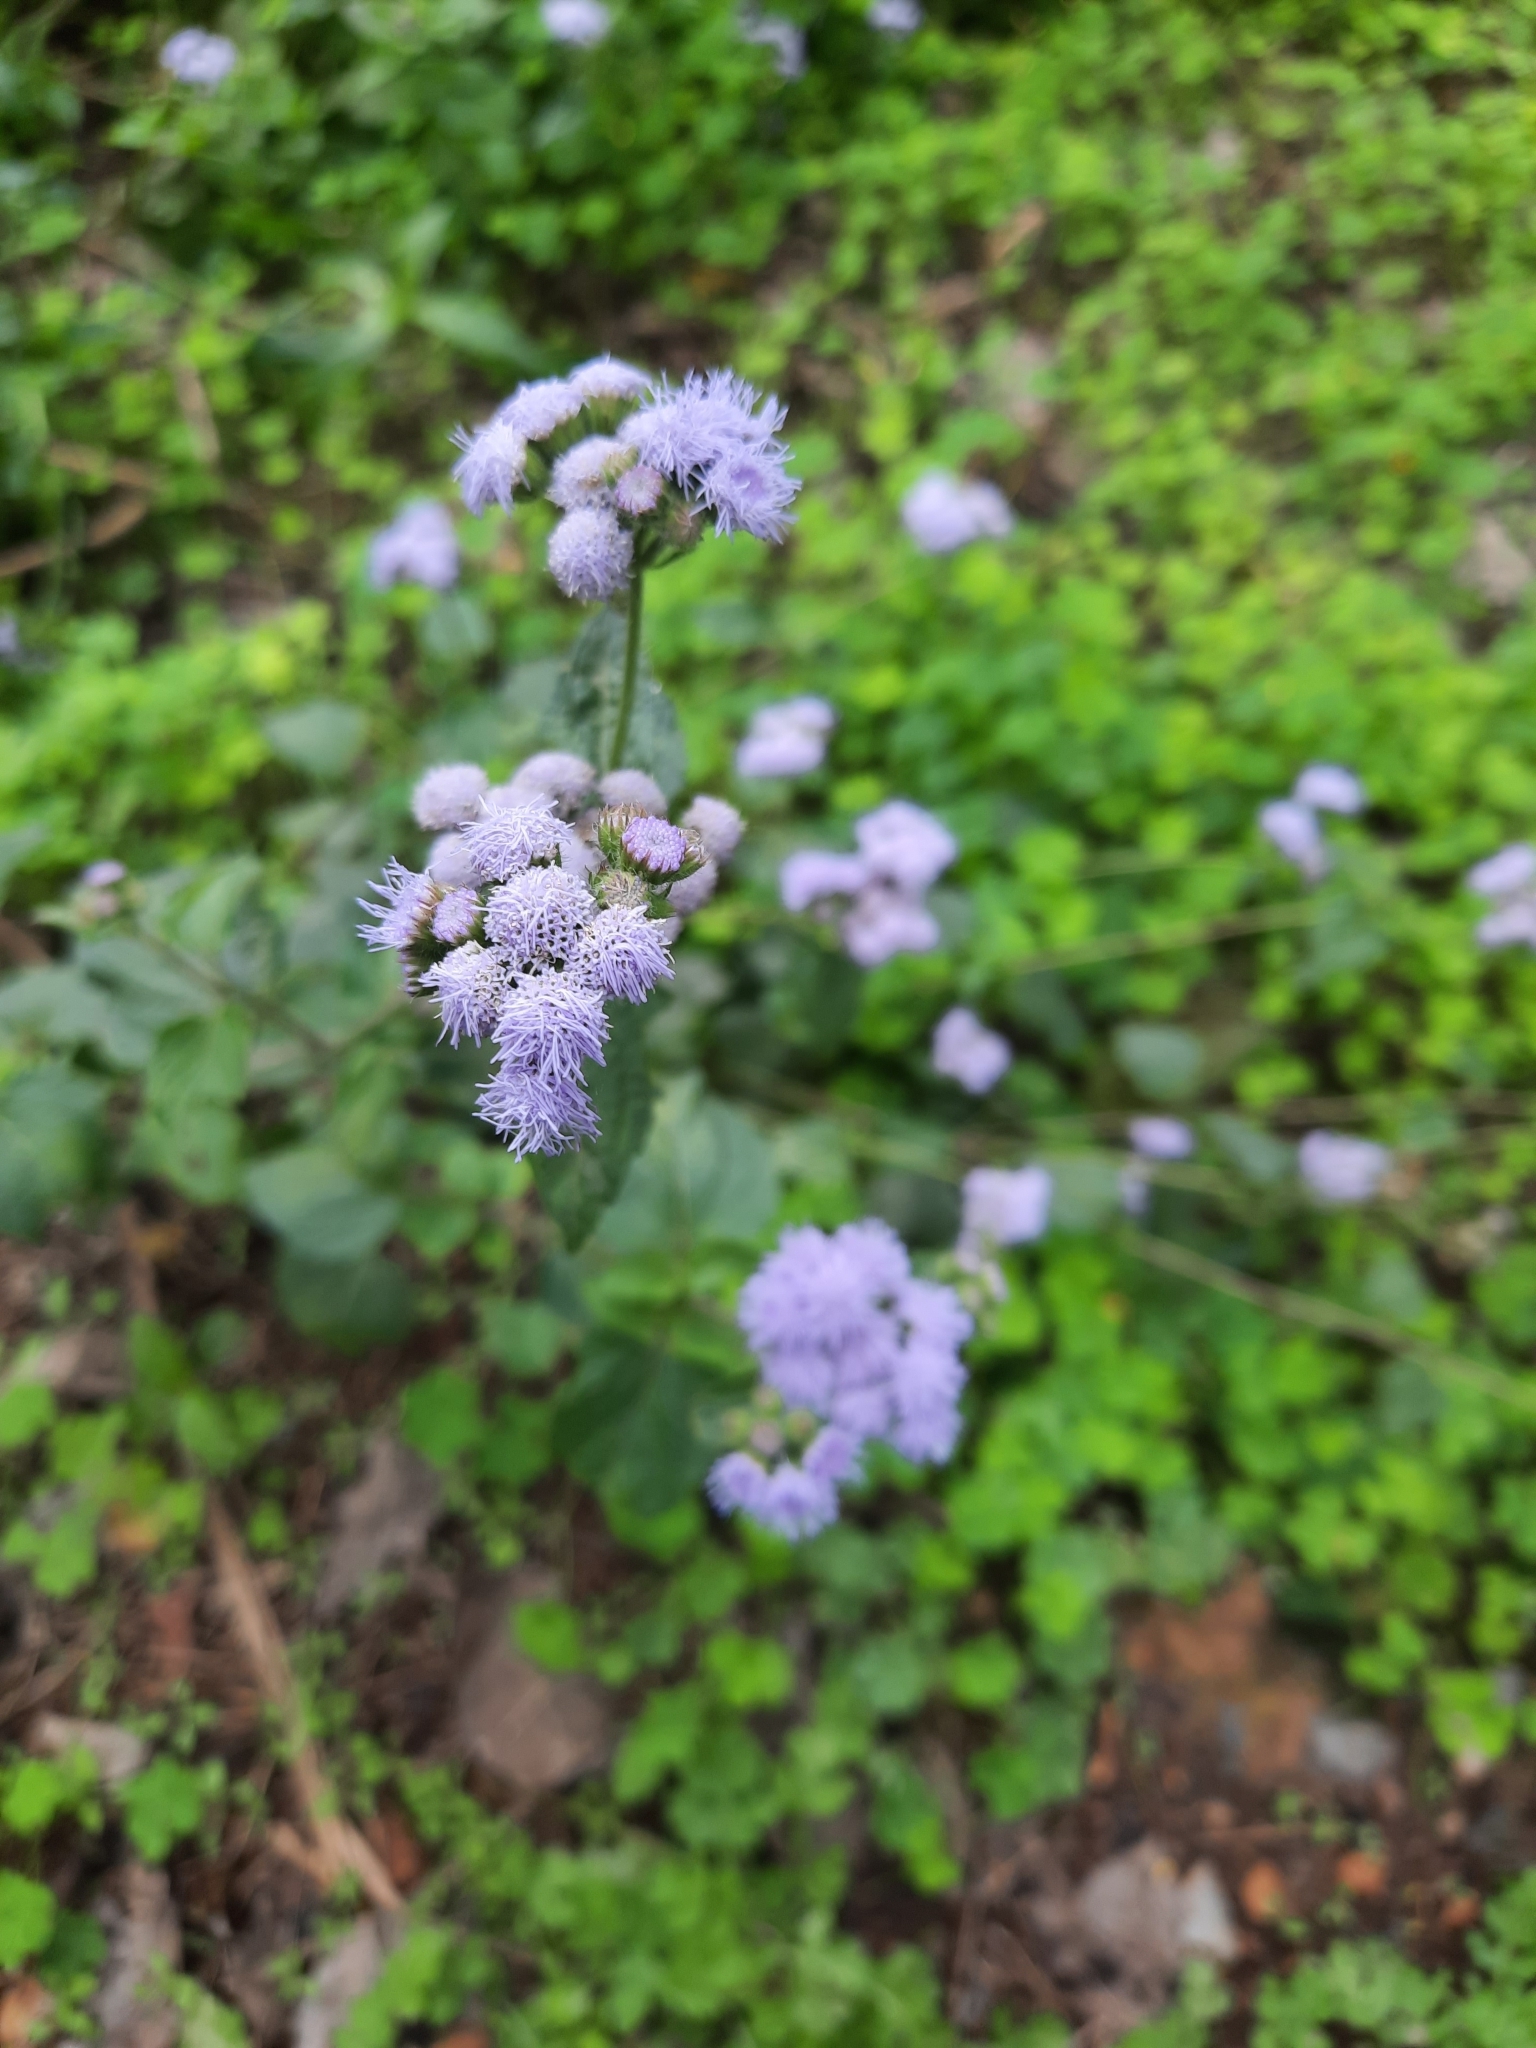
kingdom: Plantae
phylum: Tracheophyta
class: Magnoliopsida
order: Asterales
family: Asteraceae
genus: Ageratum
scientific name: Ageratum houstonianum
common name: Bluemink
